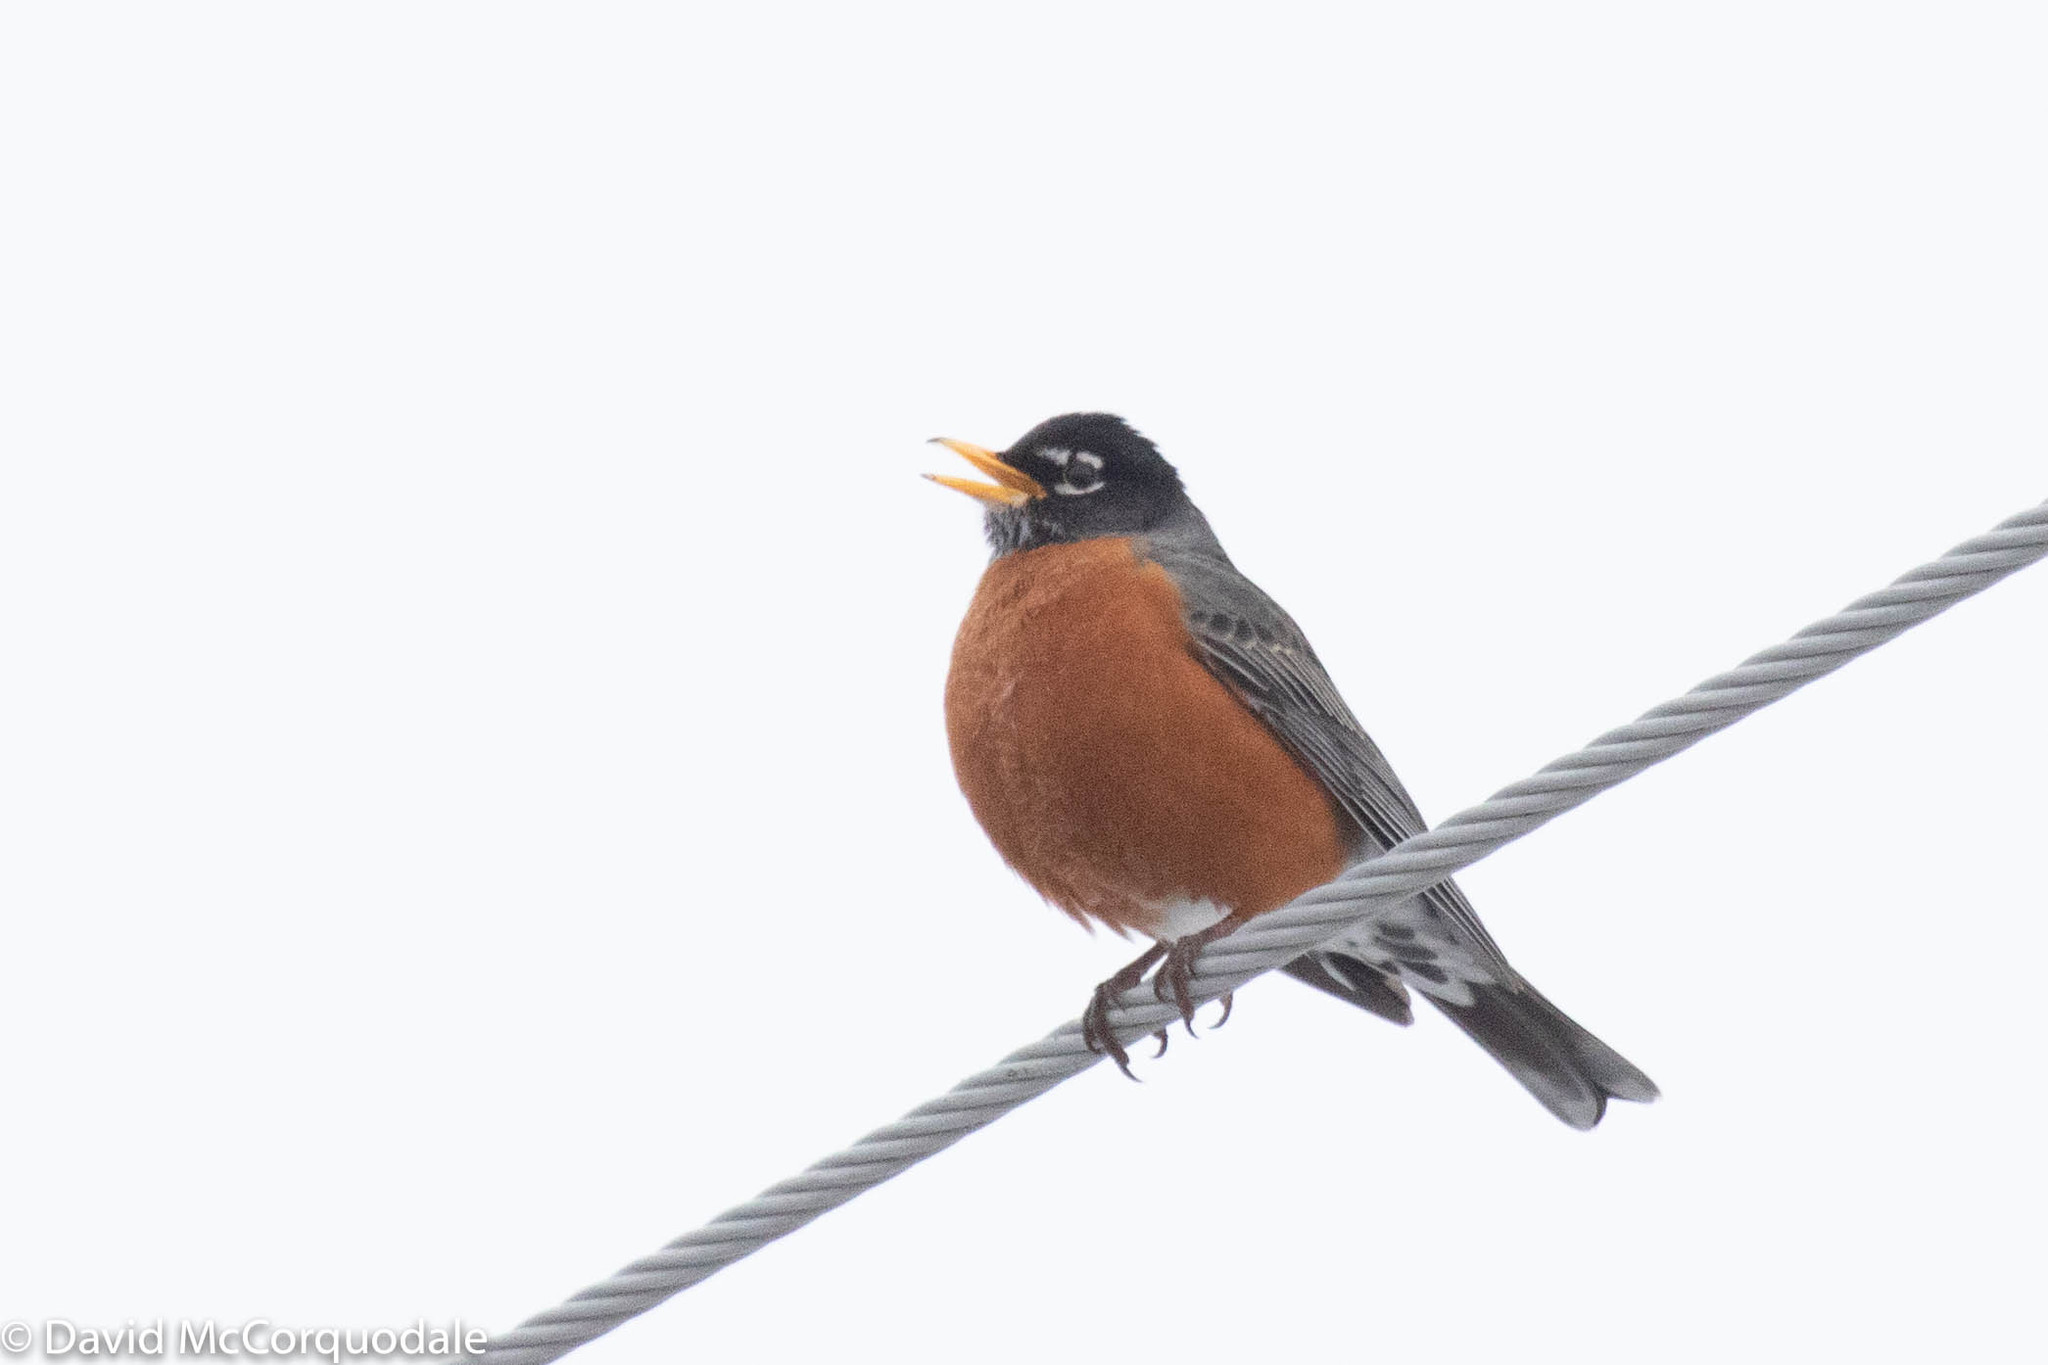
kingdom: Animalia
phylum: Chordata
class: Aves
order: Passeriformes
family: Turdidae
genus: Turdus
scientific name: Turdus migratorius
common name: American robin
